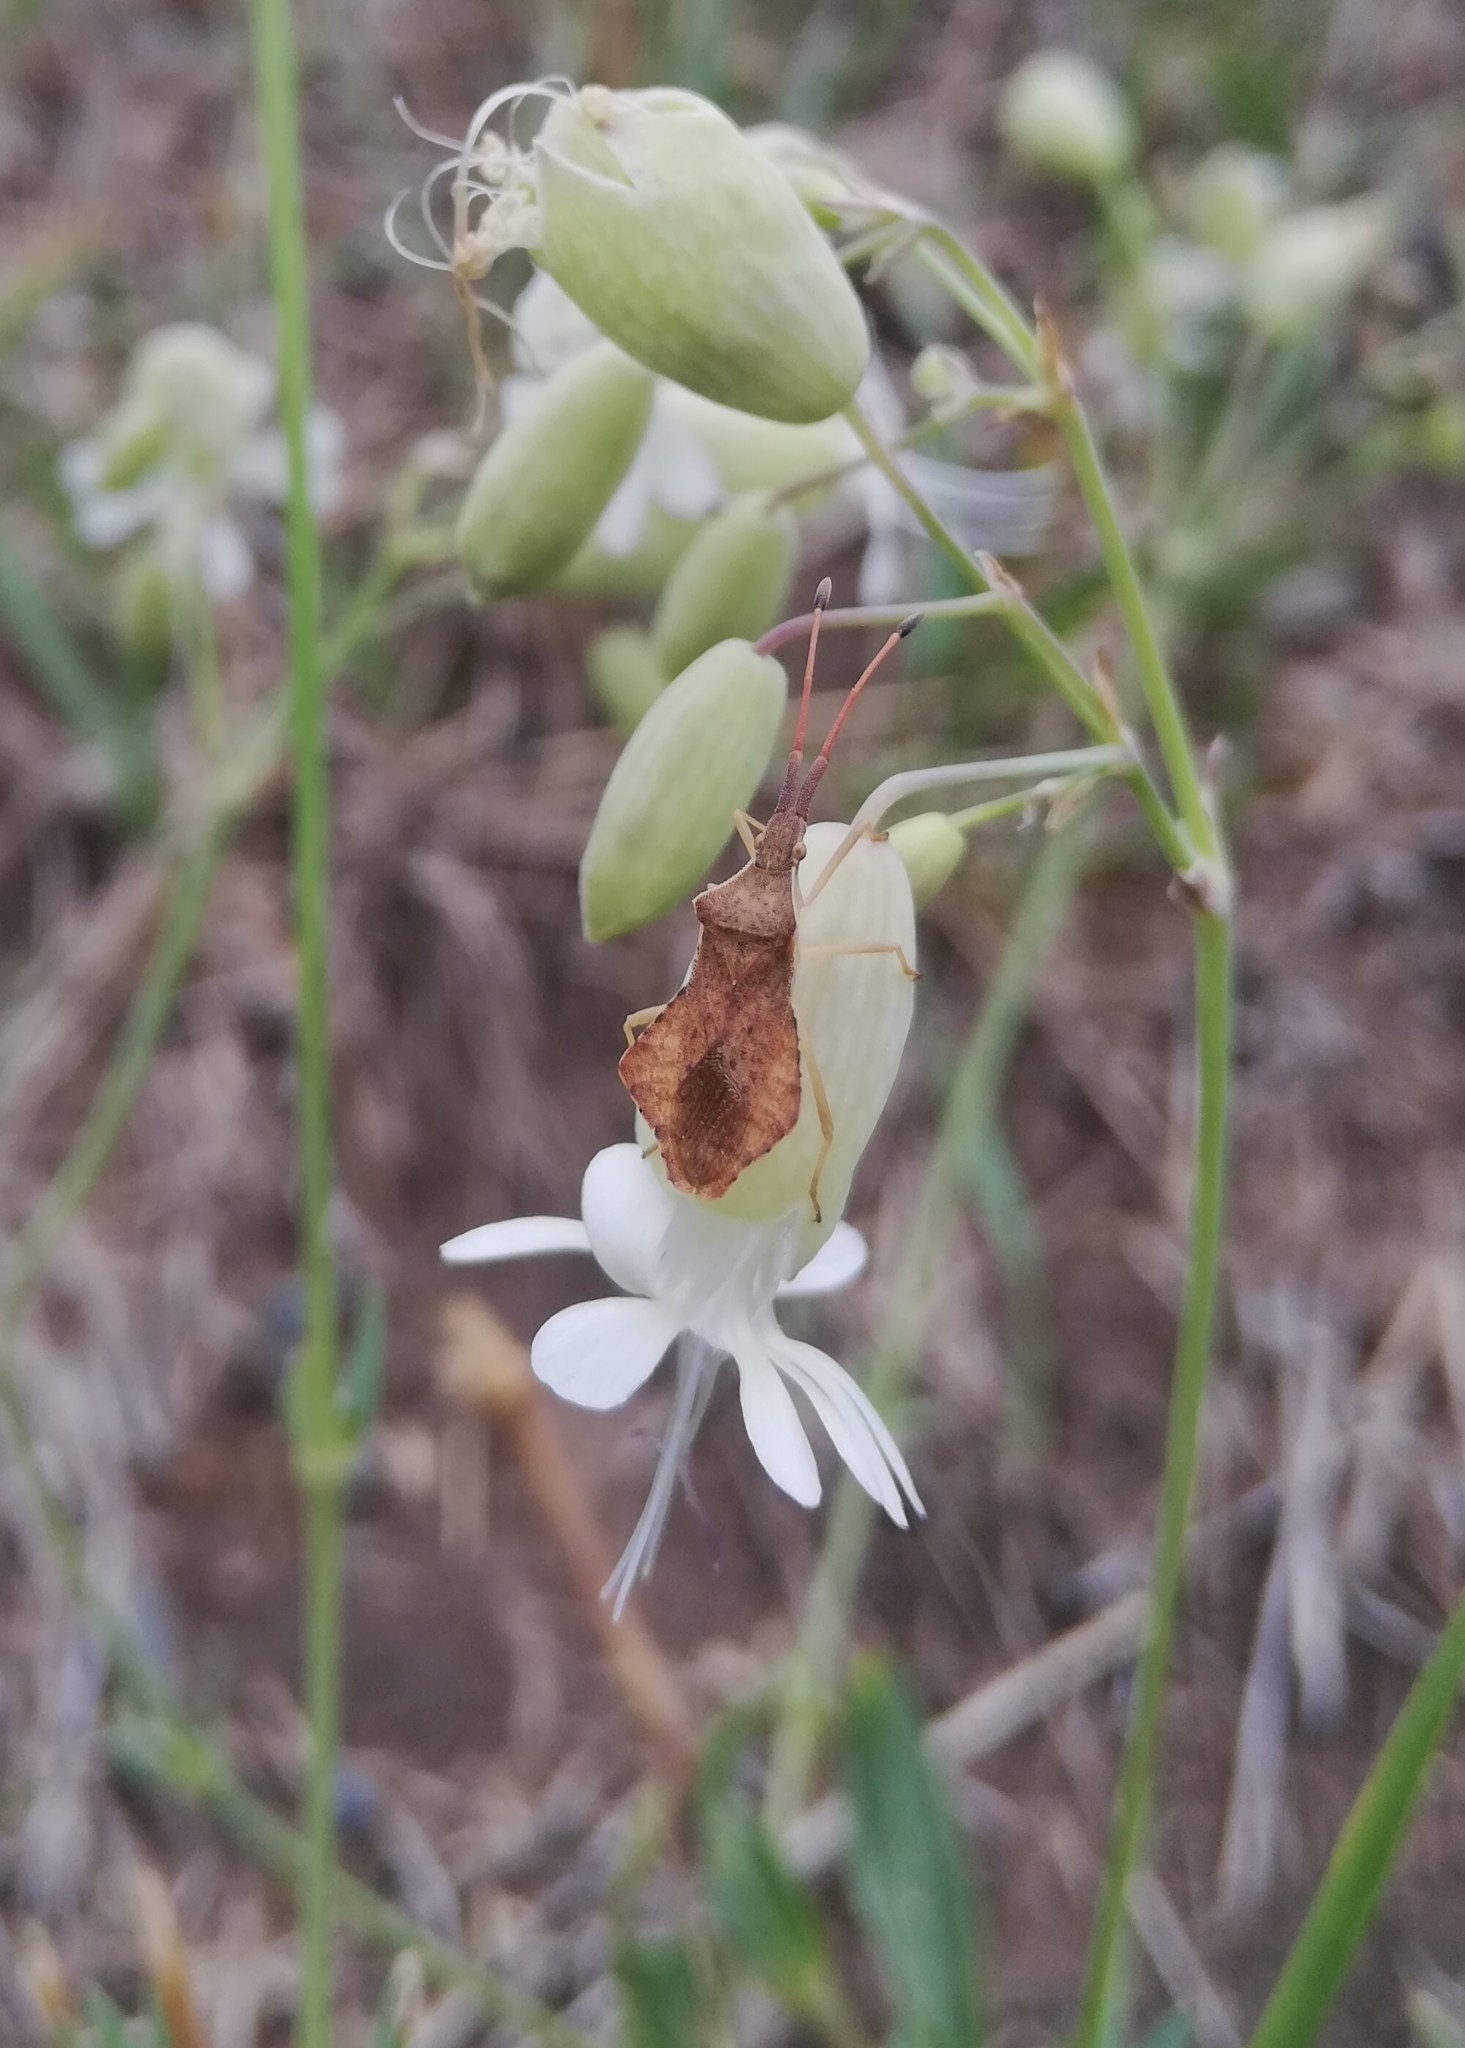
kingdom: Animalia
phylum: Arthropoda
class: Insecta
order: Hemiptera
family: Coreidae
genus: Syromastus
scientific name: Syromastus rhombeus
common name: Rhombic leatherbug
